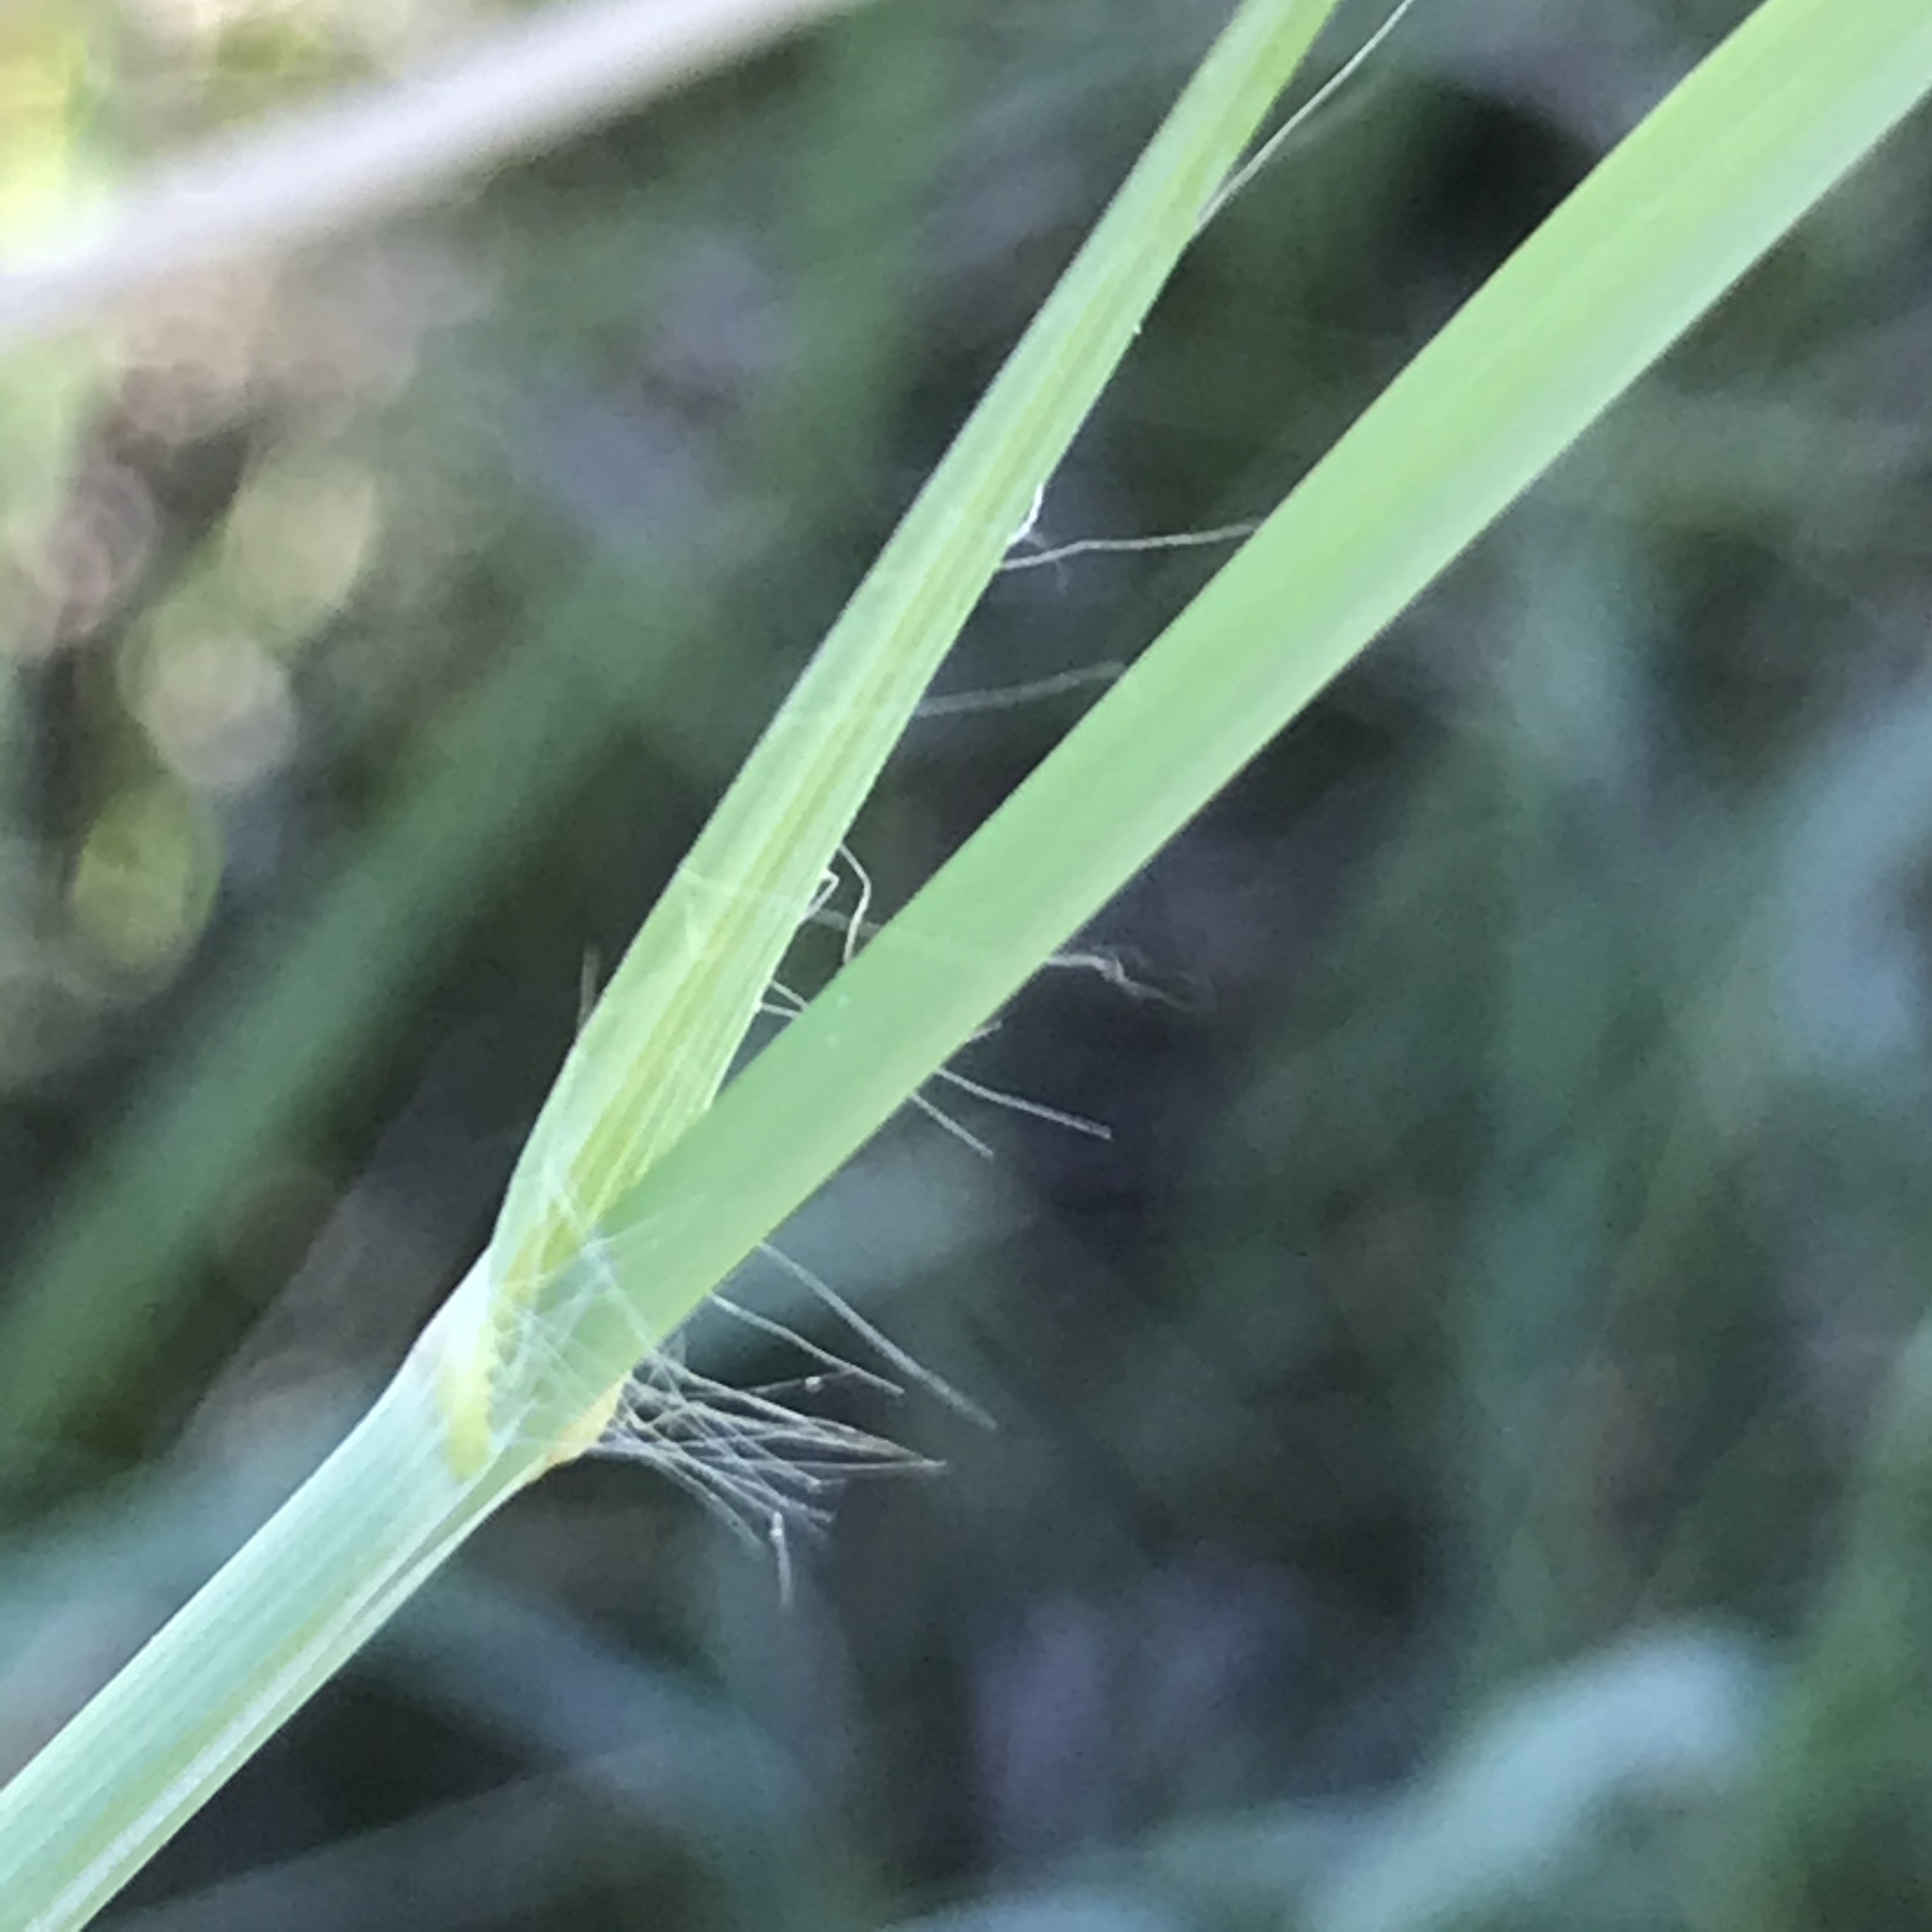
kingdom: Plantae
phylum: Tracheophyta
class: Liliopsida
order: Poales
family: Poaceae
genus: Andropogon
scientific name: Andropogon hallii
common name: Sand bluestem
